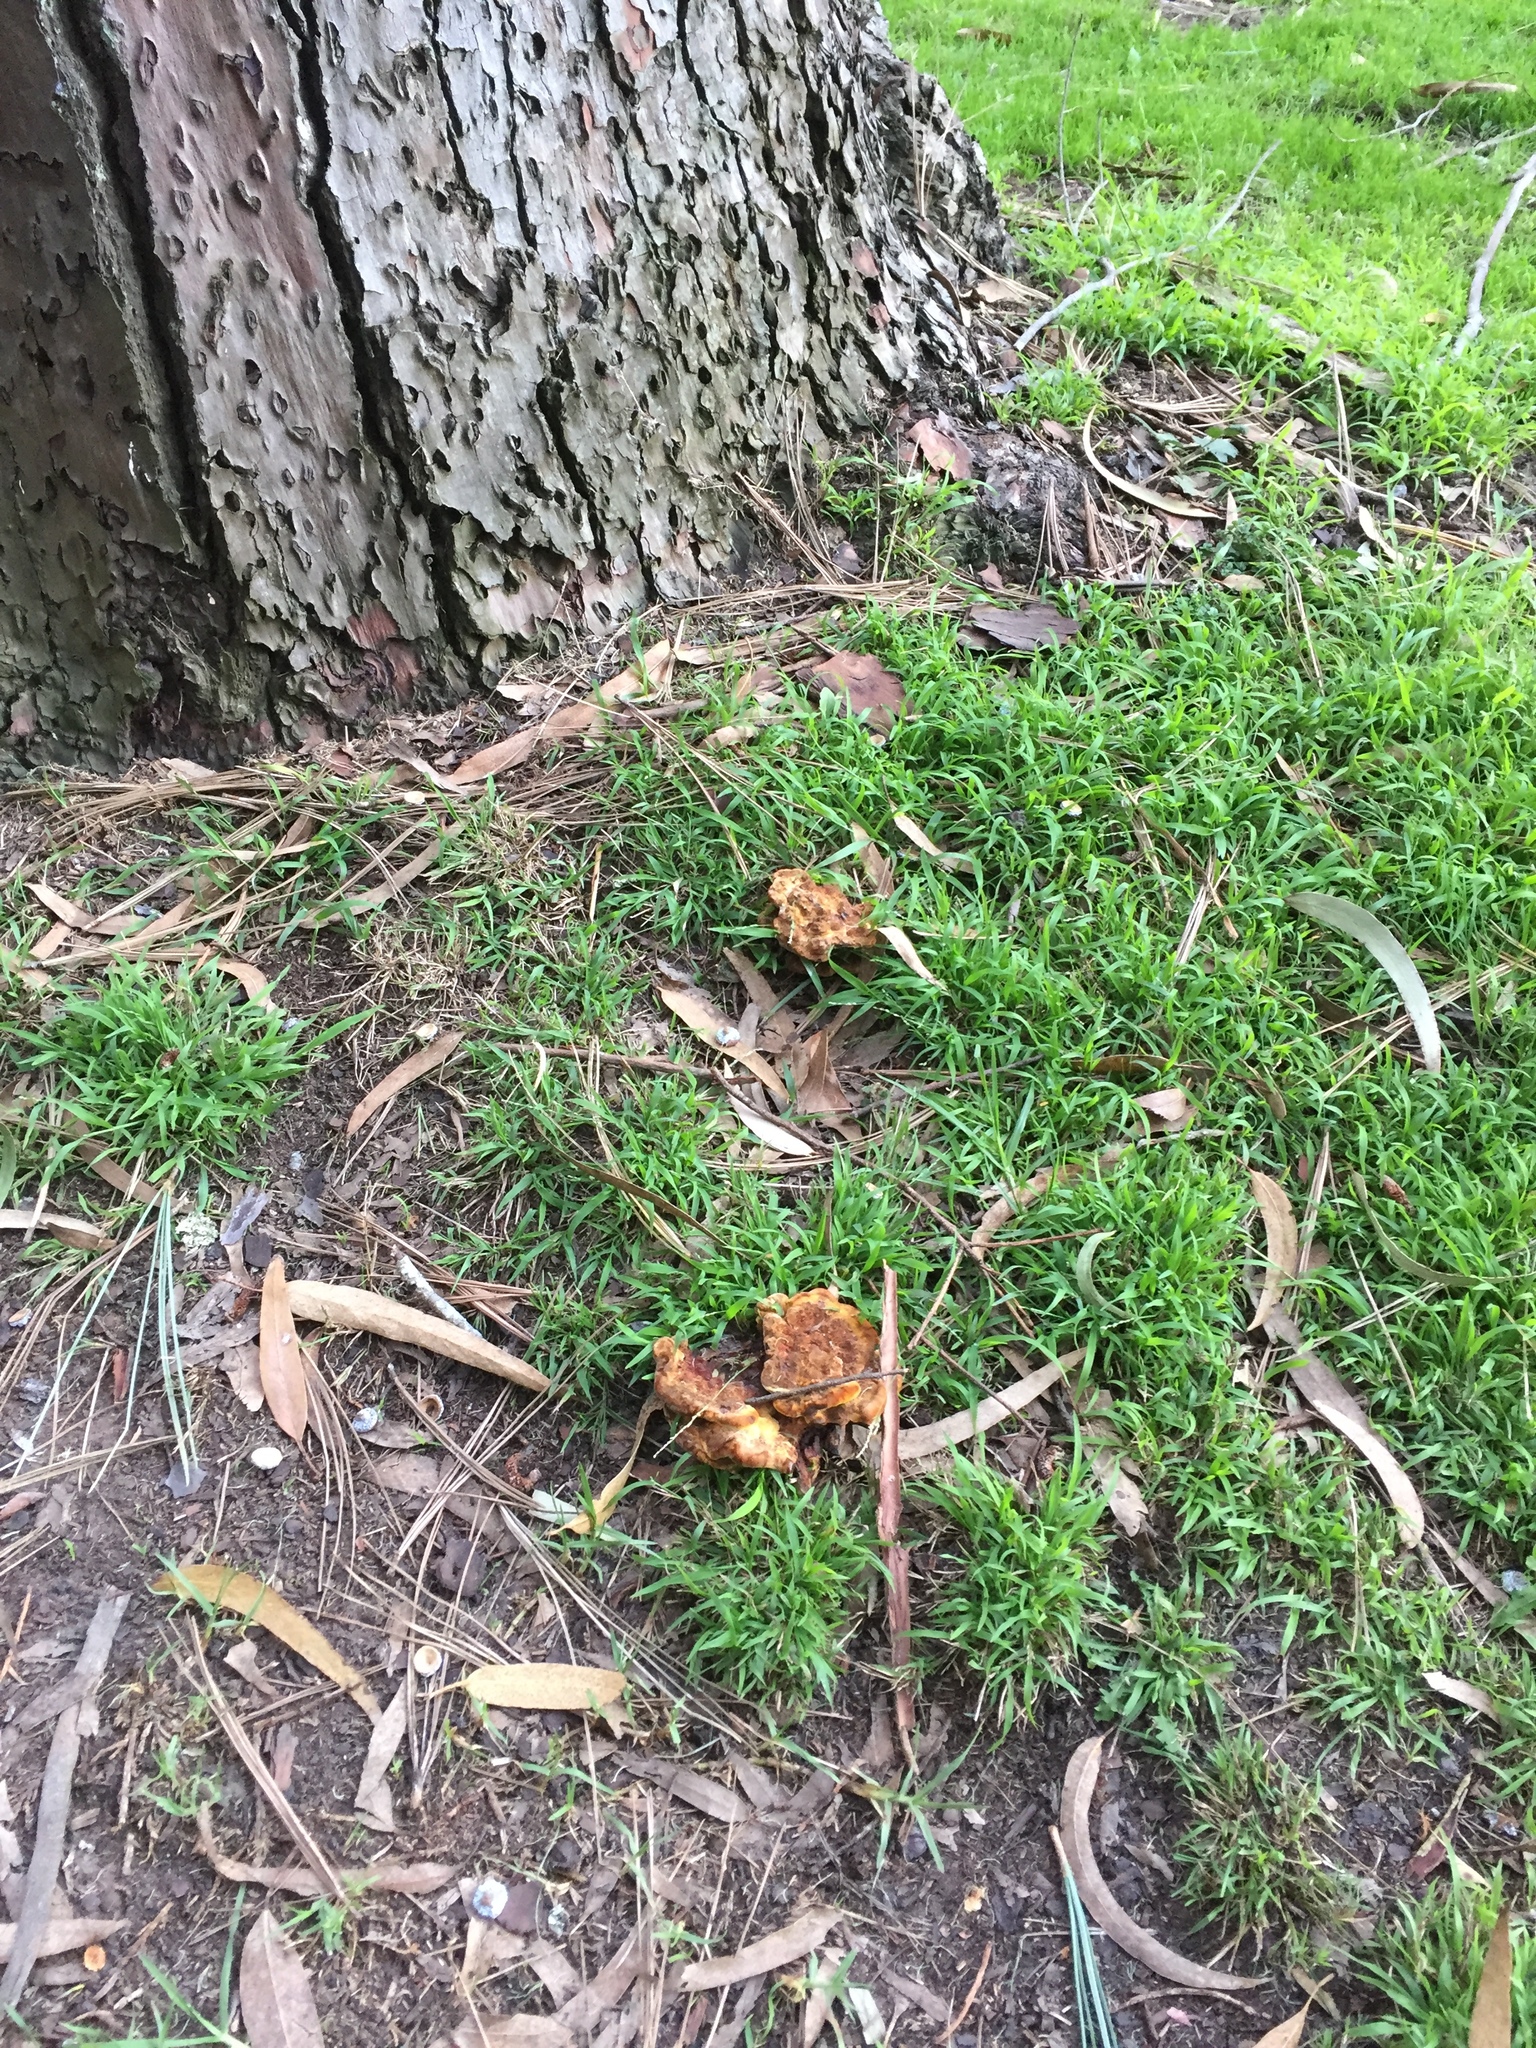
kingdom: Fungi
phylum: Basidiomycota
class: Agaricomycetes
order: Polyporales
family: Laetiporaceae
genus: Phaeolus
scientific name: Phaeolus schweinitzii
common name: Dyer's mazegill
